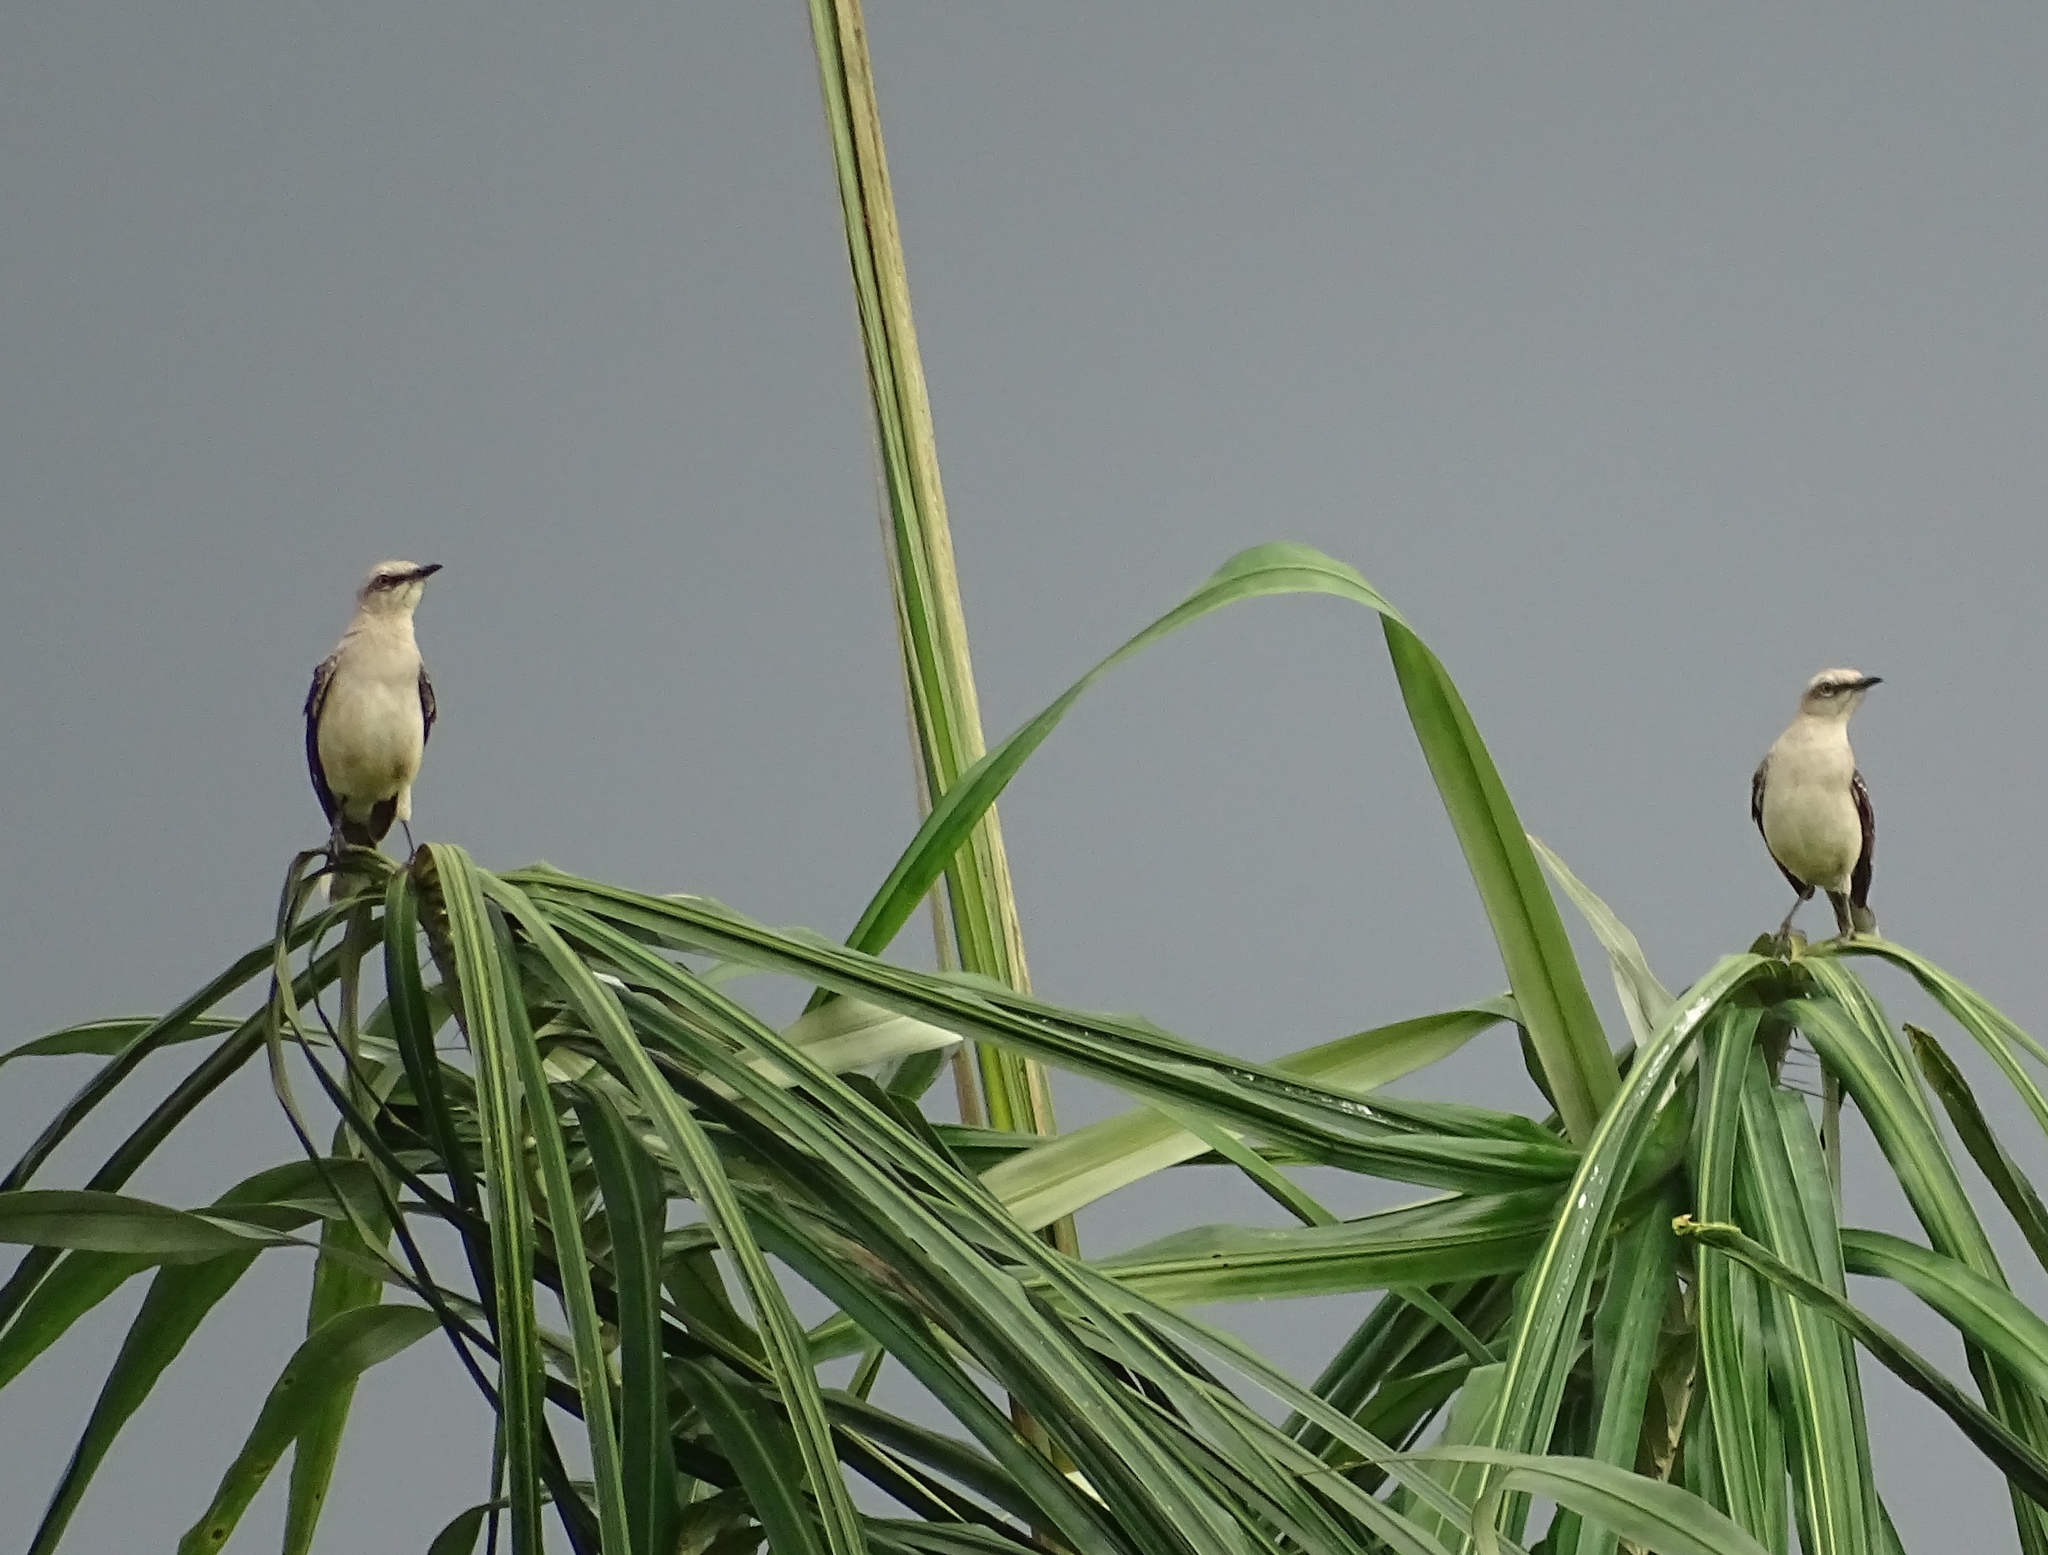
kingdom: Animalia
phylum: Chordata
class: Aves
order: Passeriformes
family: Mimidae
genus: Mimus
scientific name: Mimus gilvus
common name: Tropical mockingbird
